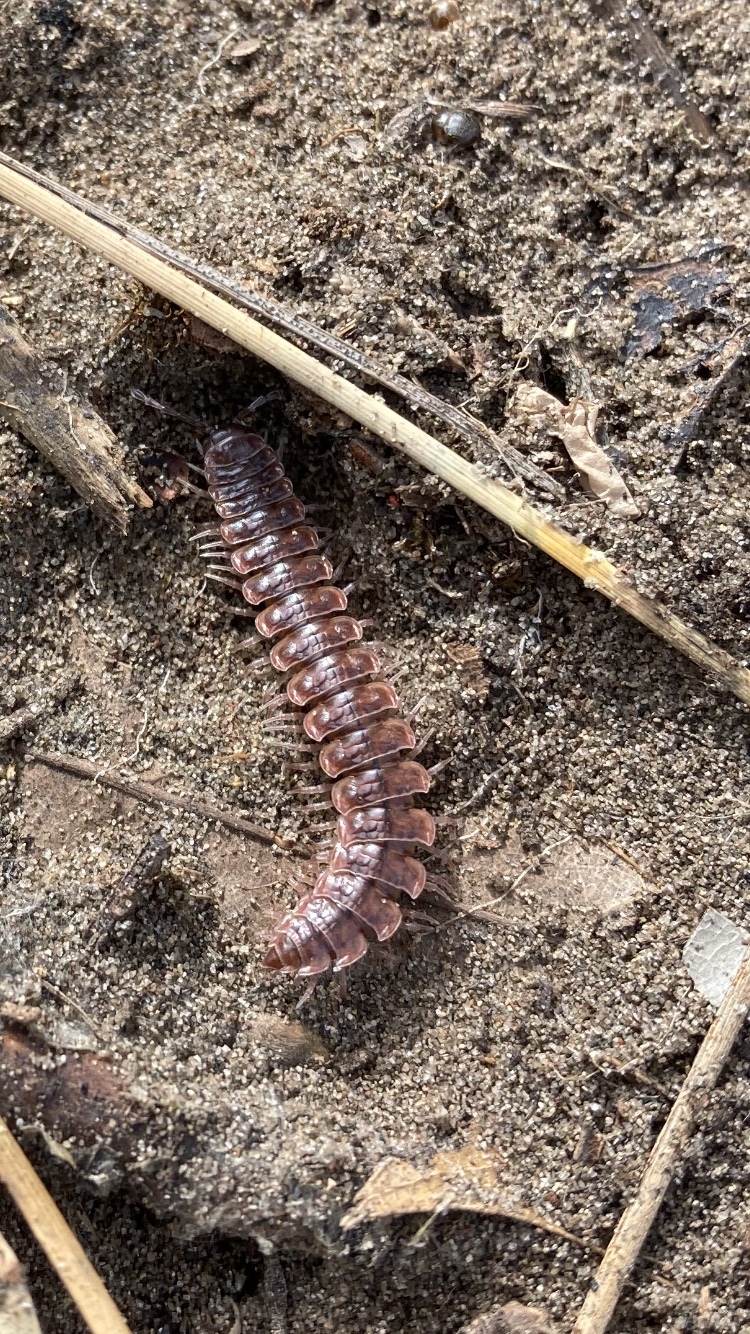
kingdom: Animalia
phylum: Arthropoda
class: Diplopoda
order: Polydesmida
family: Polydesmidae
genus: Pseudopolydesmus
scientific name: Pseudopolydesmus serratus
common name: Common pink flat-back millipede
